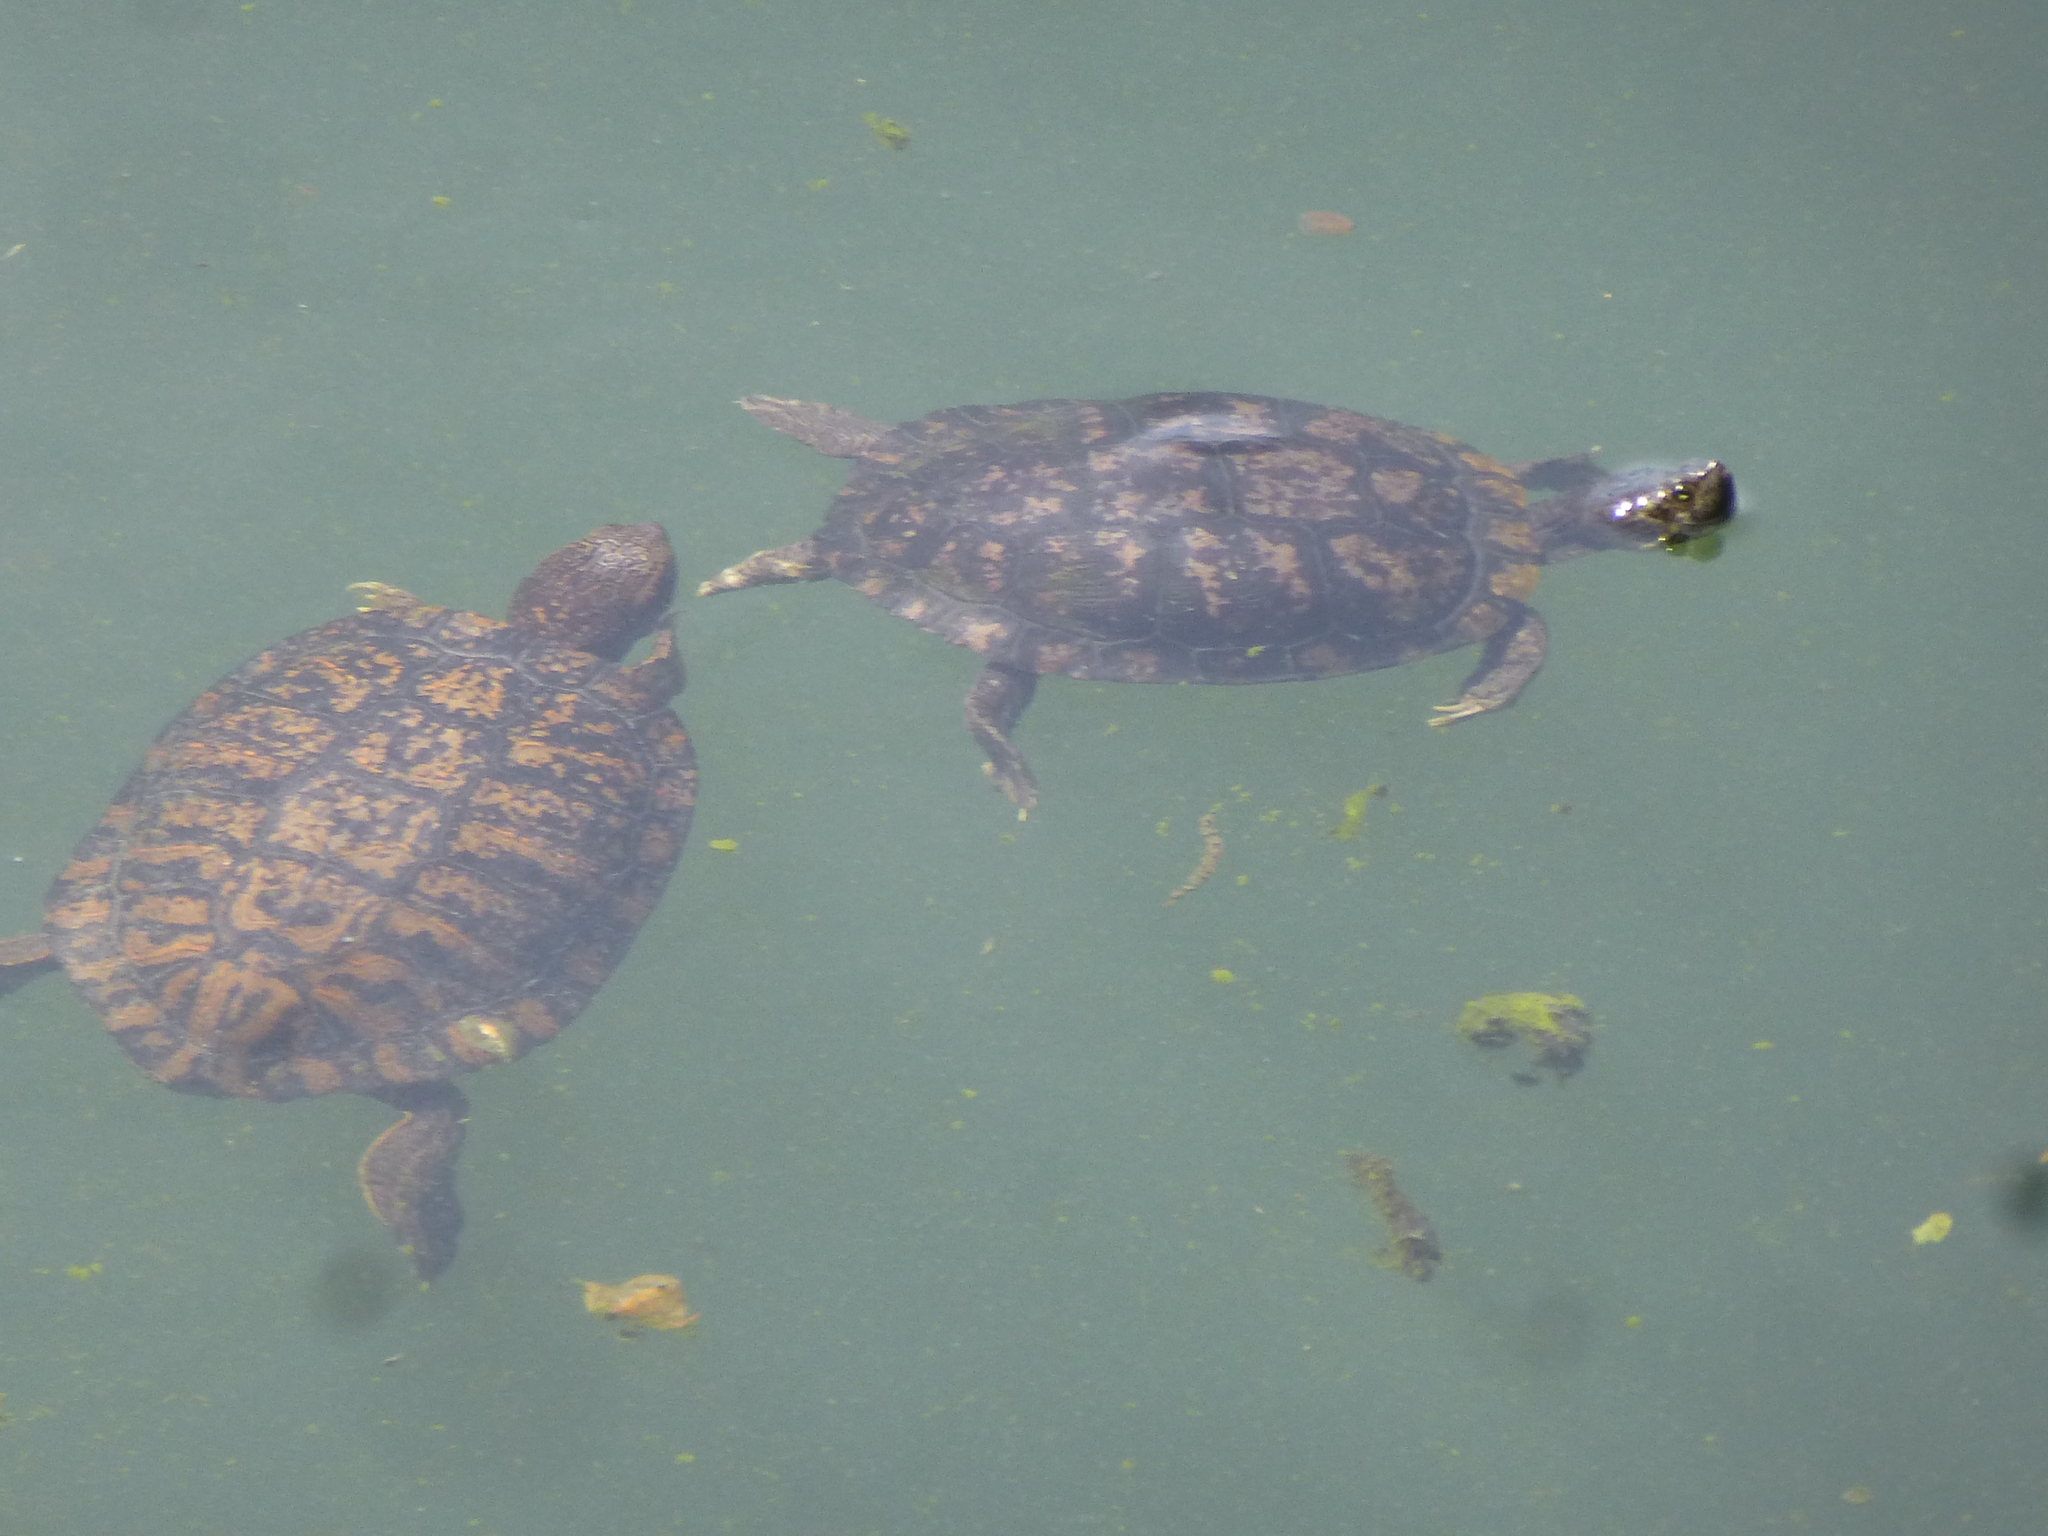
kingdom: Animalia
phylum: Chordata
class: Testudines
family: Emydidae
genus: Trachemys
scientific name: Trachemys scripta
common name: Slider
